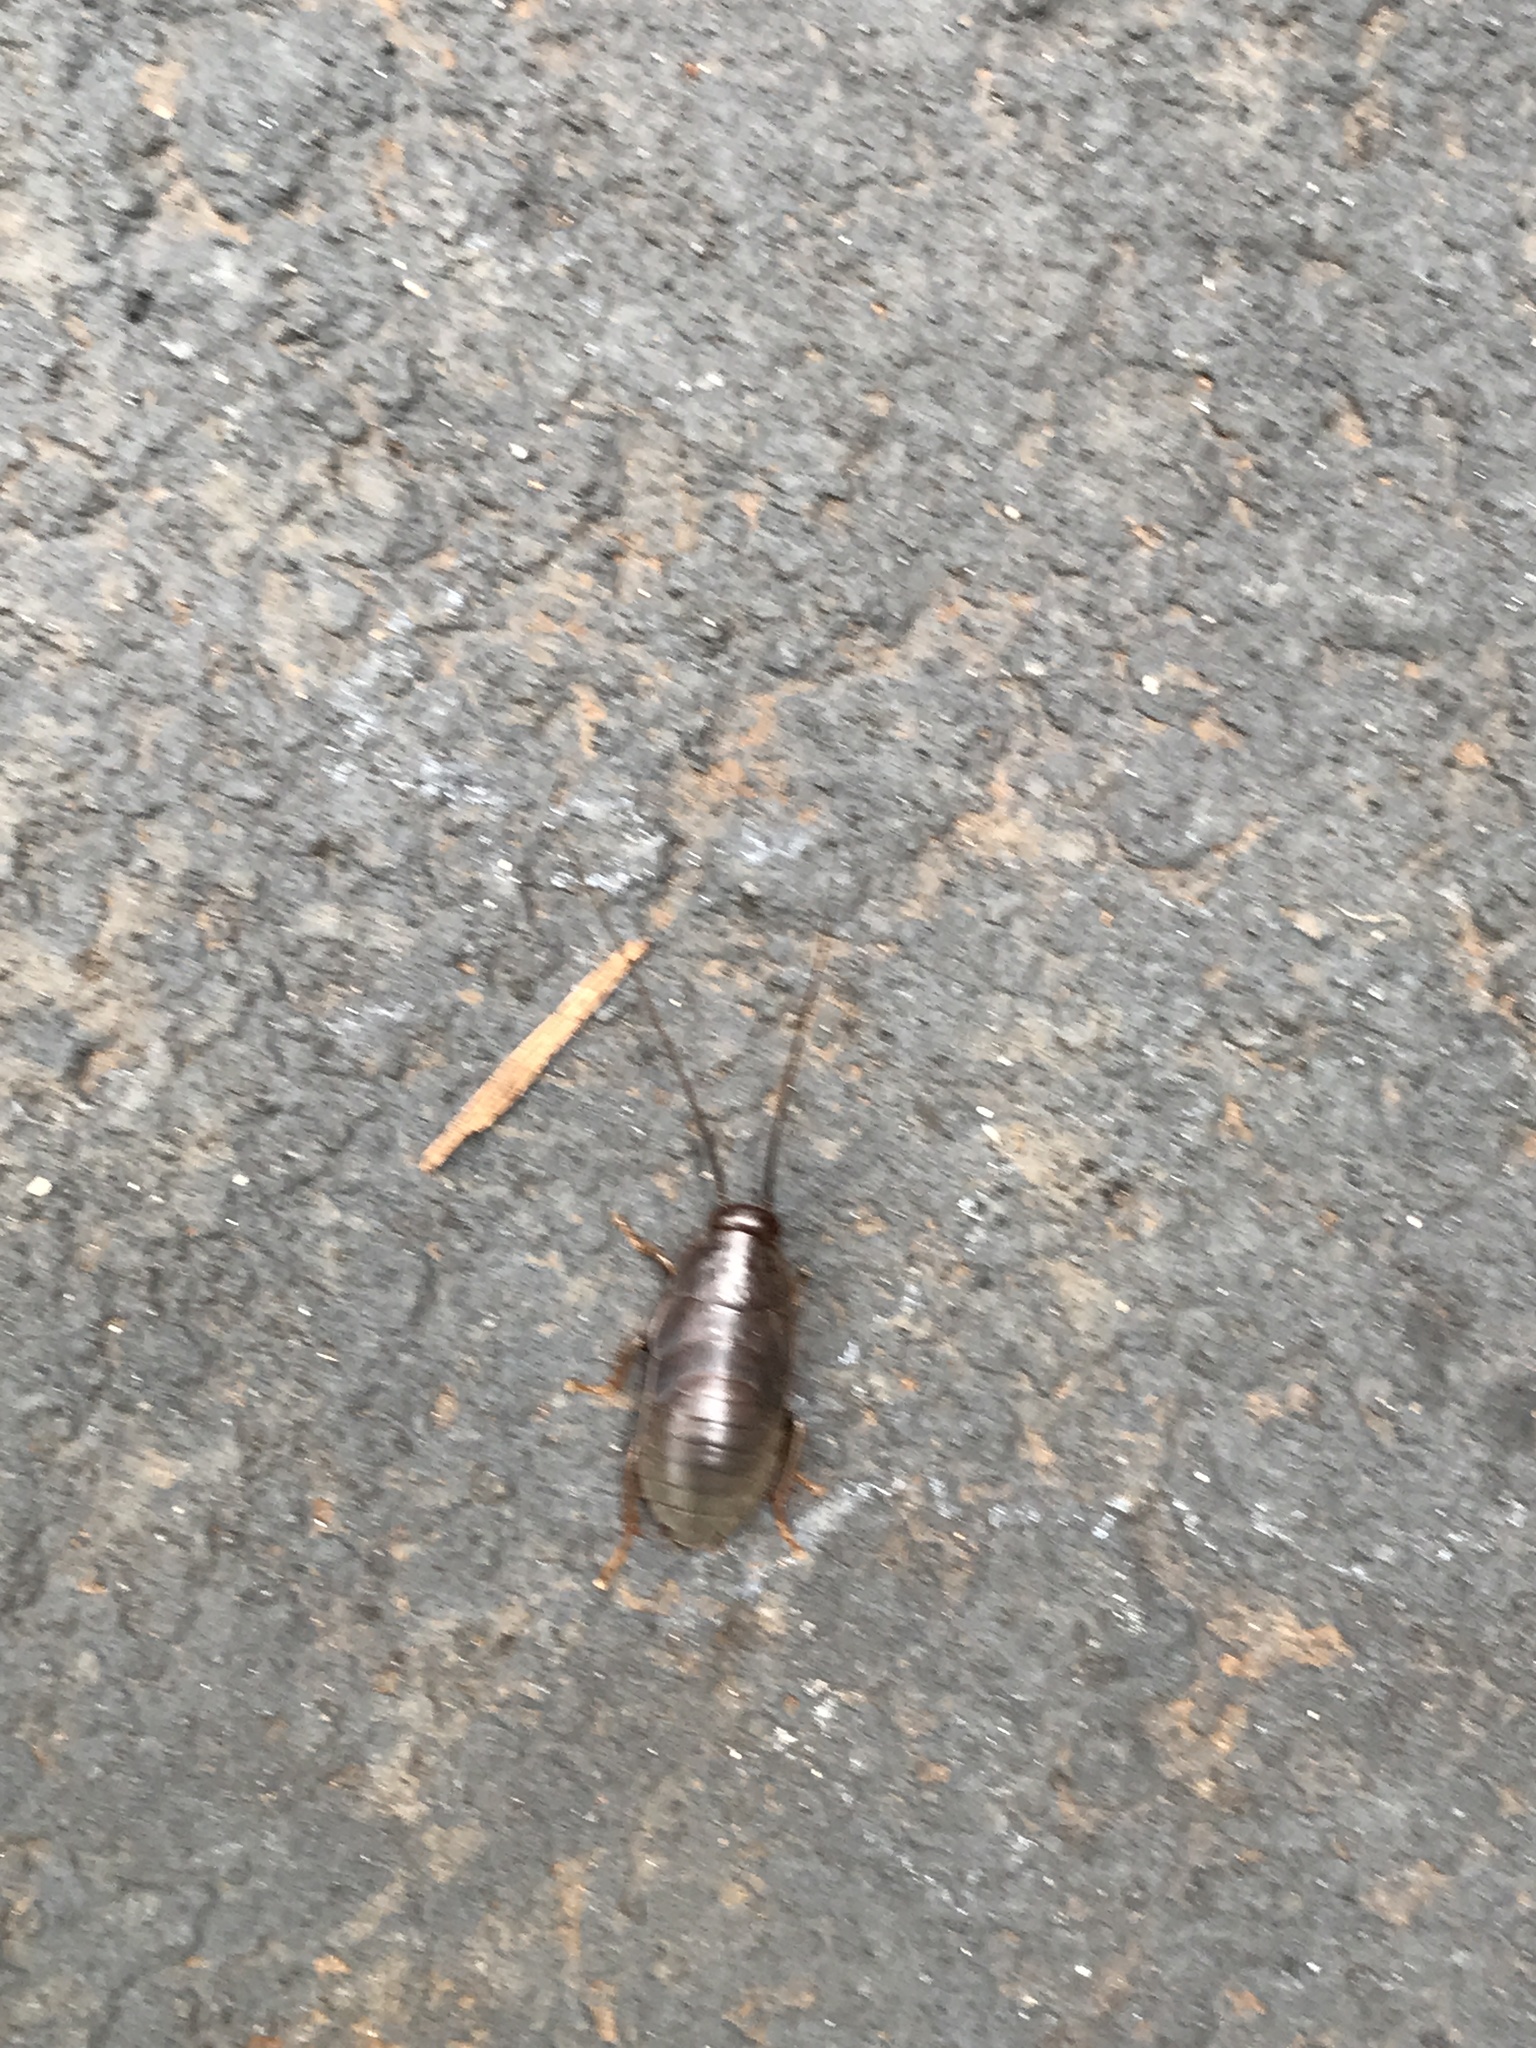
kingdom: Animalia
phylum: Arthropoda
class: Insecta
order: Blattodea
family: Blaberidae
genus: Diploptera
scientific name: Diploptera punctata
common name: Pacific beetle cockroach
